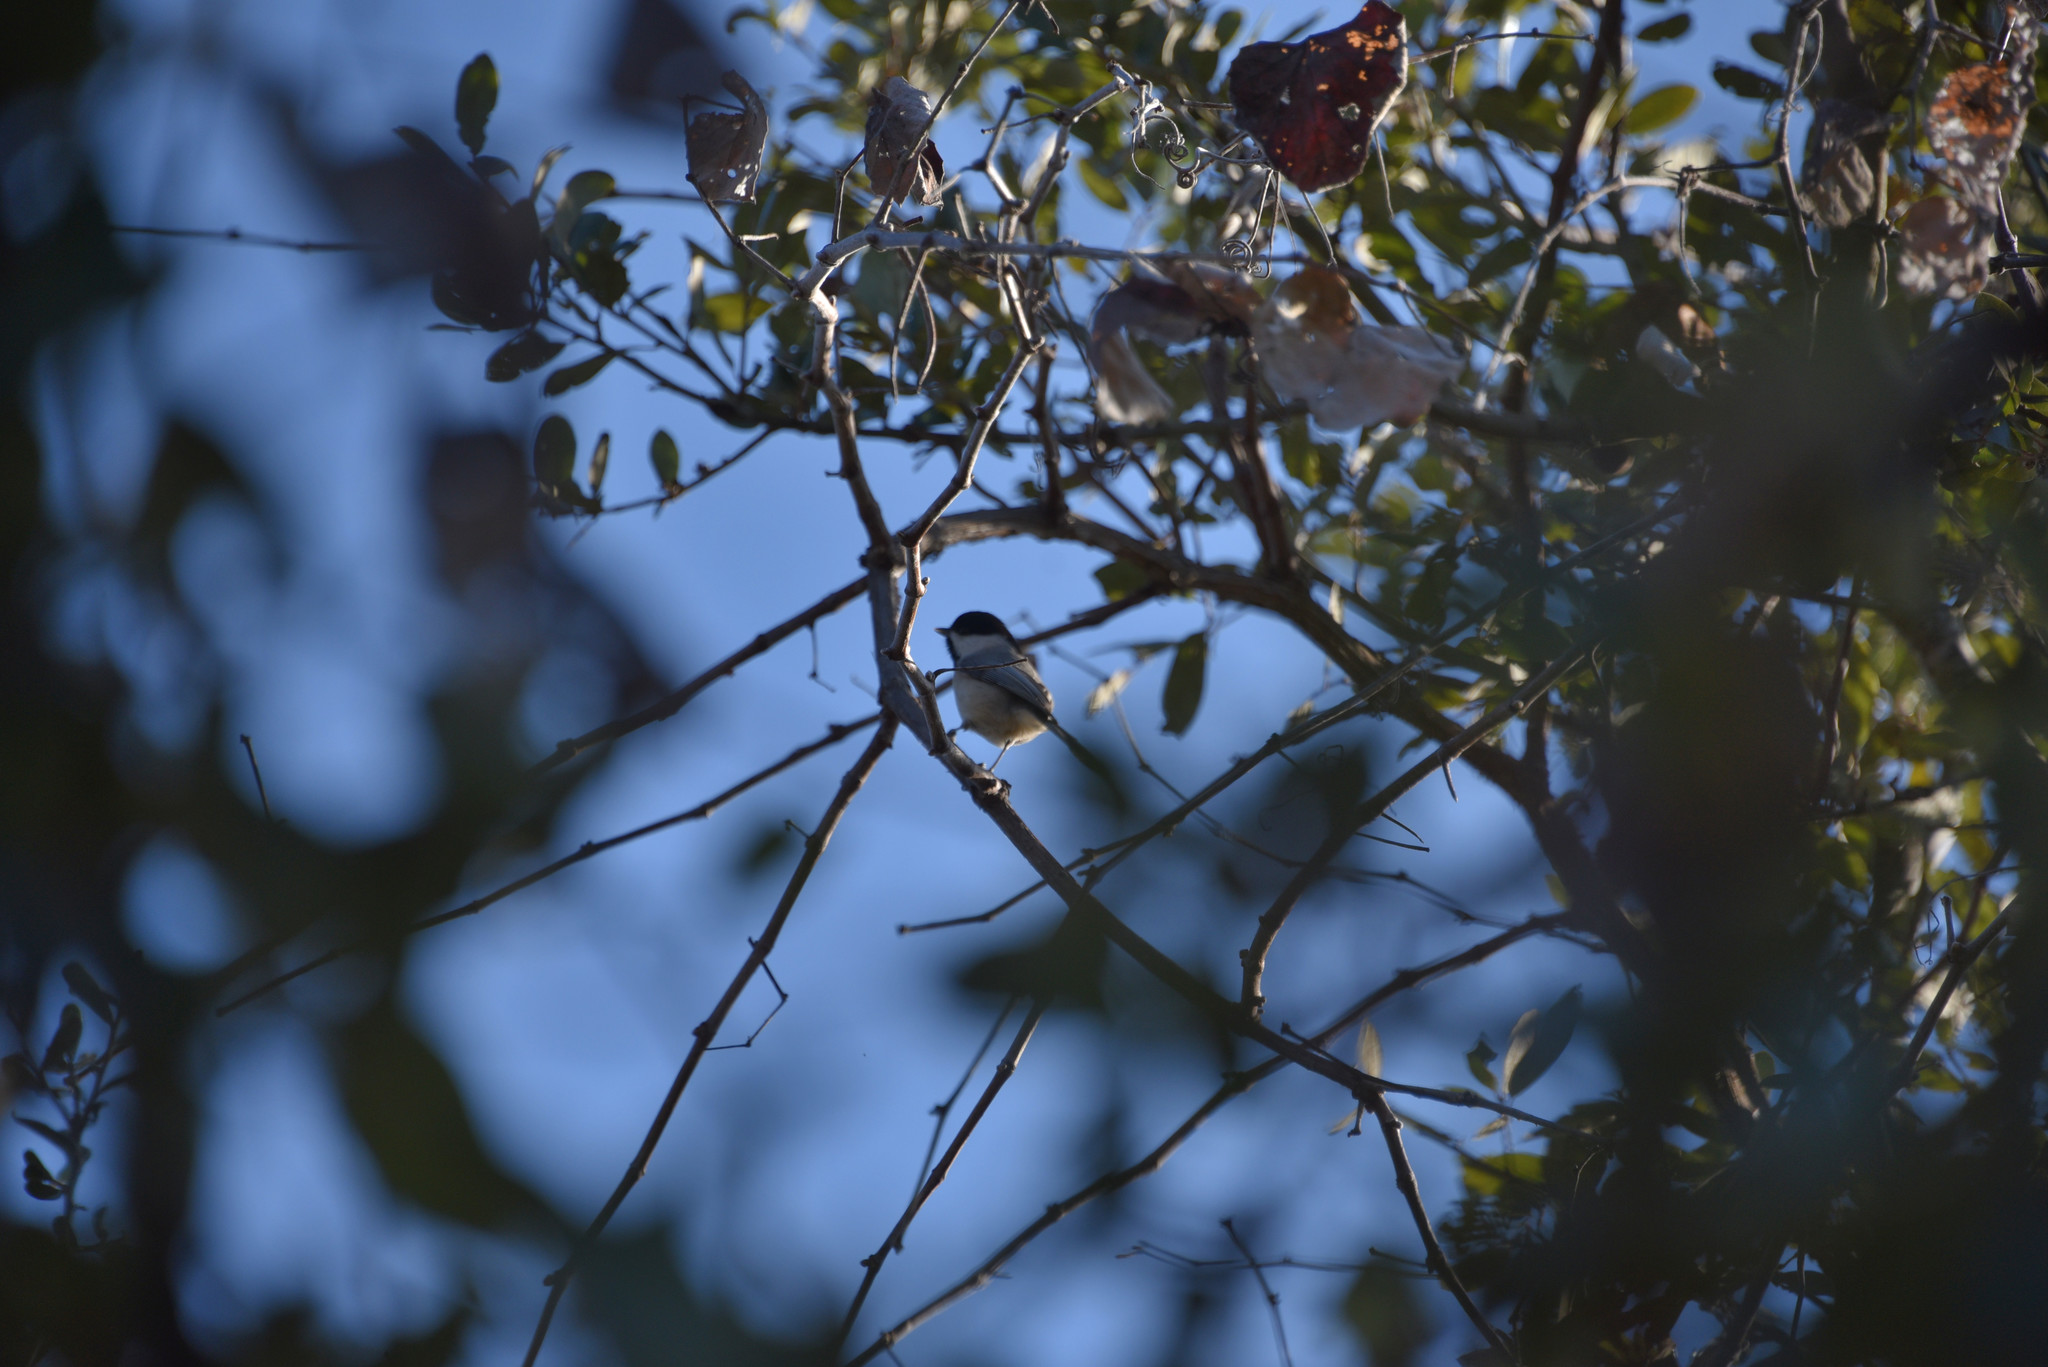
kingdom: Animalia
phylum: Chordata
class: Aves
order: Passeriformes
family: Paridae
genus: Poecile
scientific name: Poecile carolinensis
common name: Carolina chickadee
